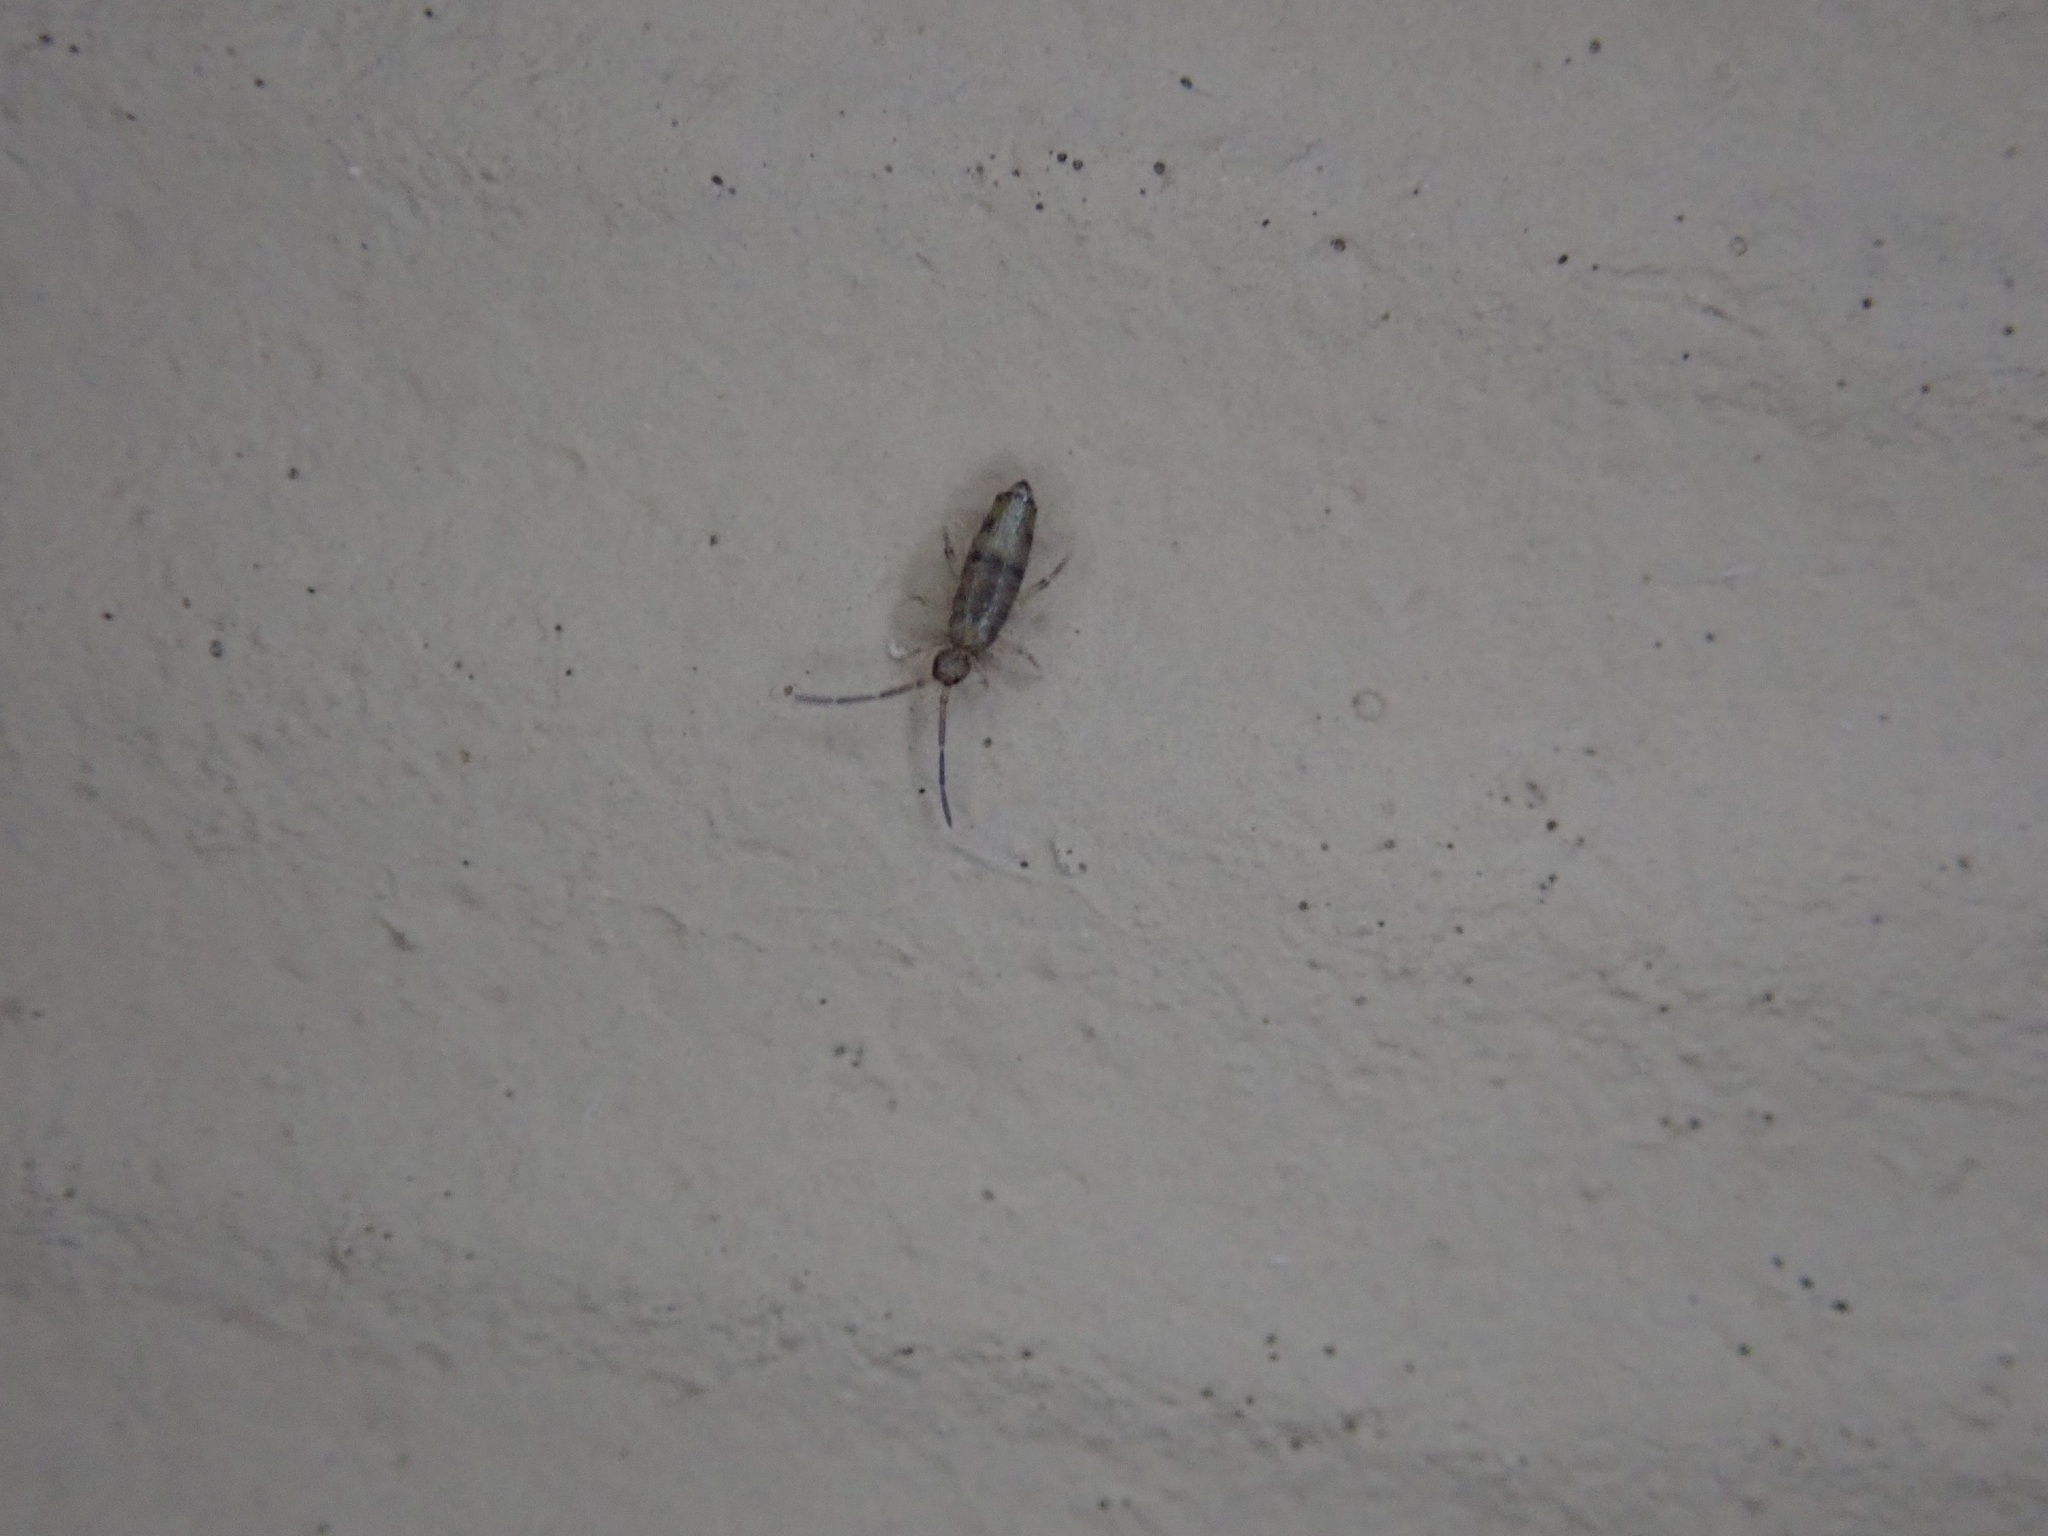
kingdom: Animalia
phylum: Arthropoda
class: Collembola
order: Entomobryomorpha
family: Entomobryidae
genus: Willowsia
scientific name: Willowsia nigromaculata
